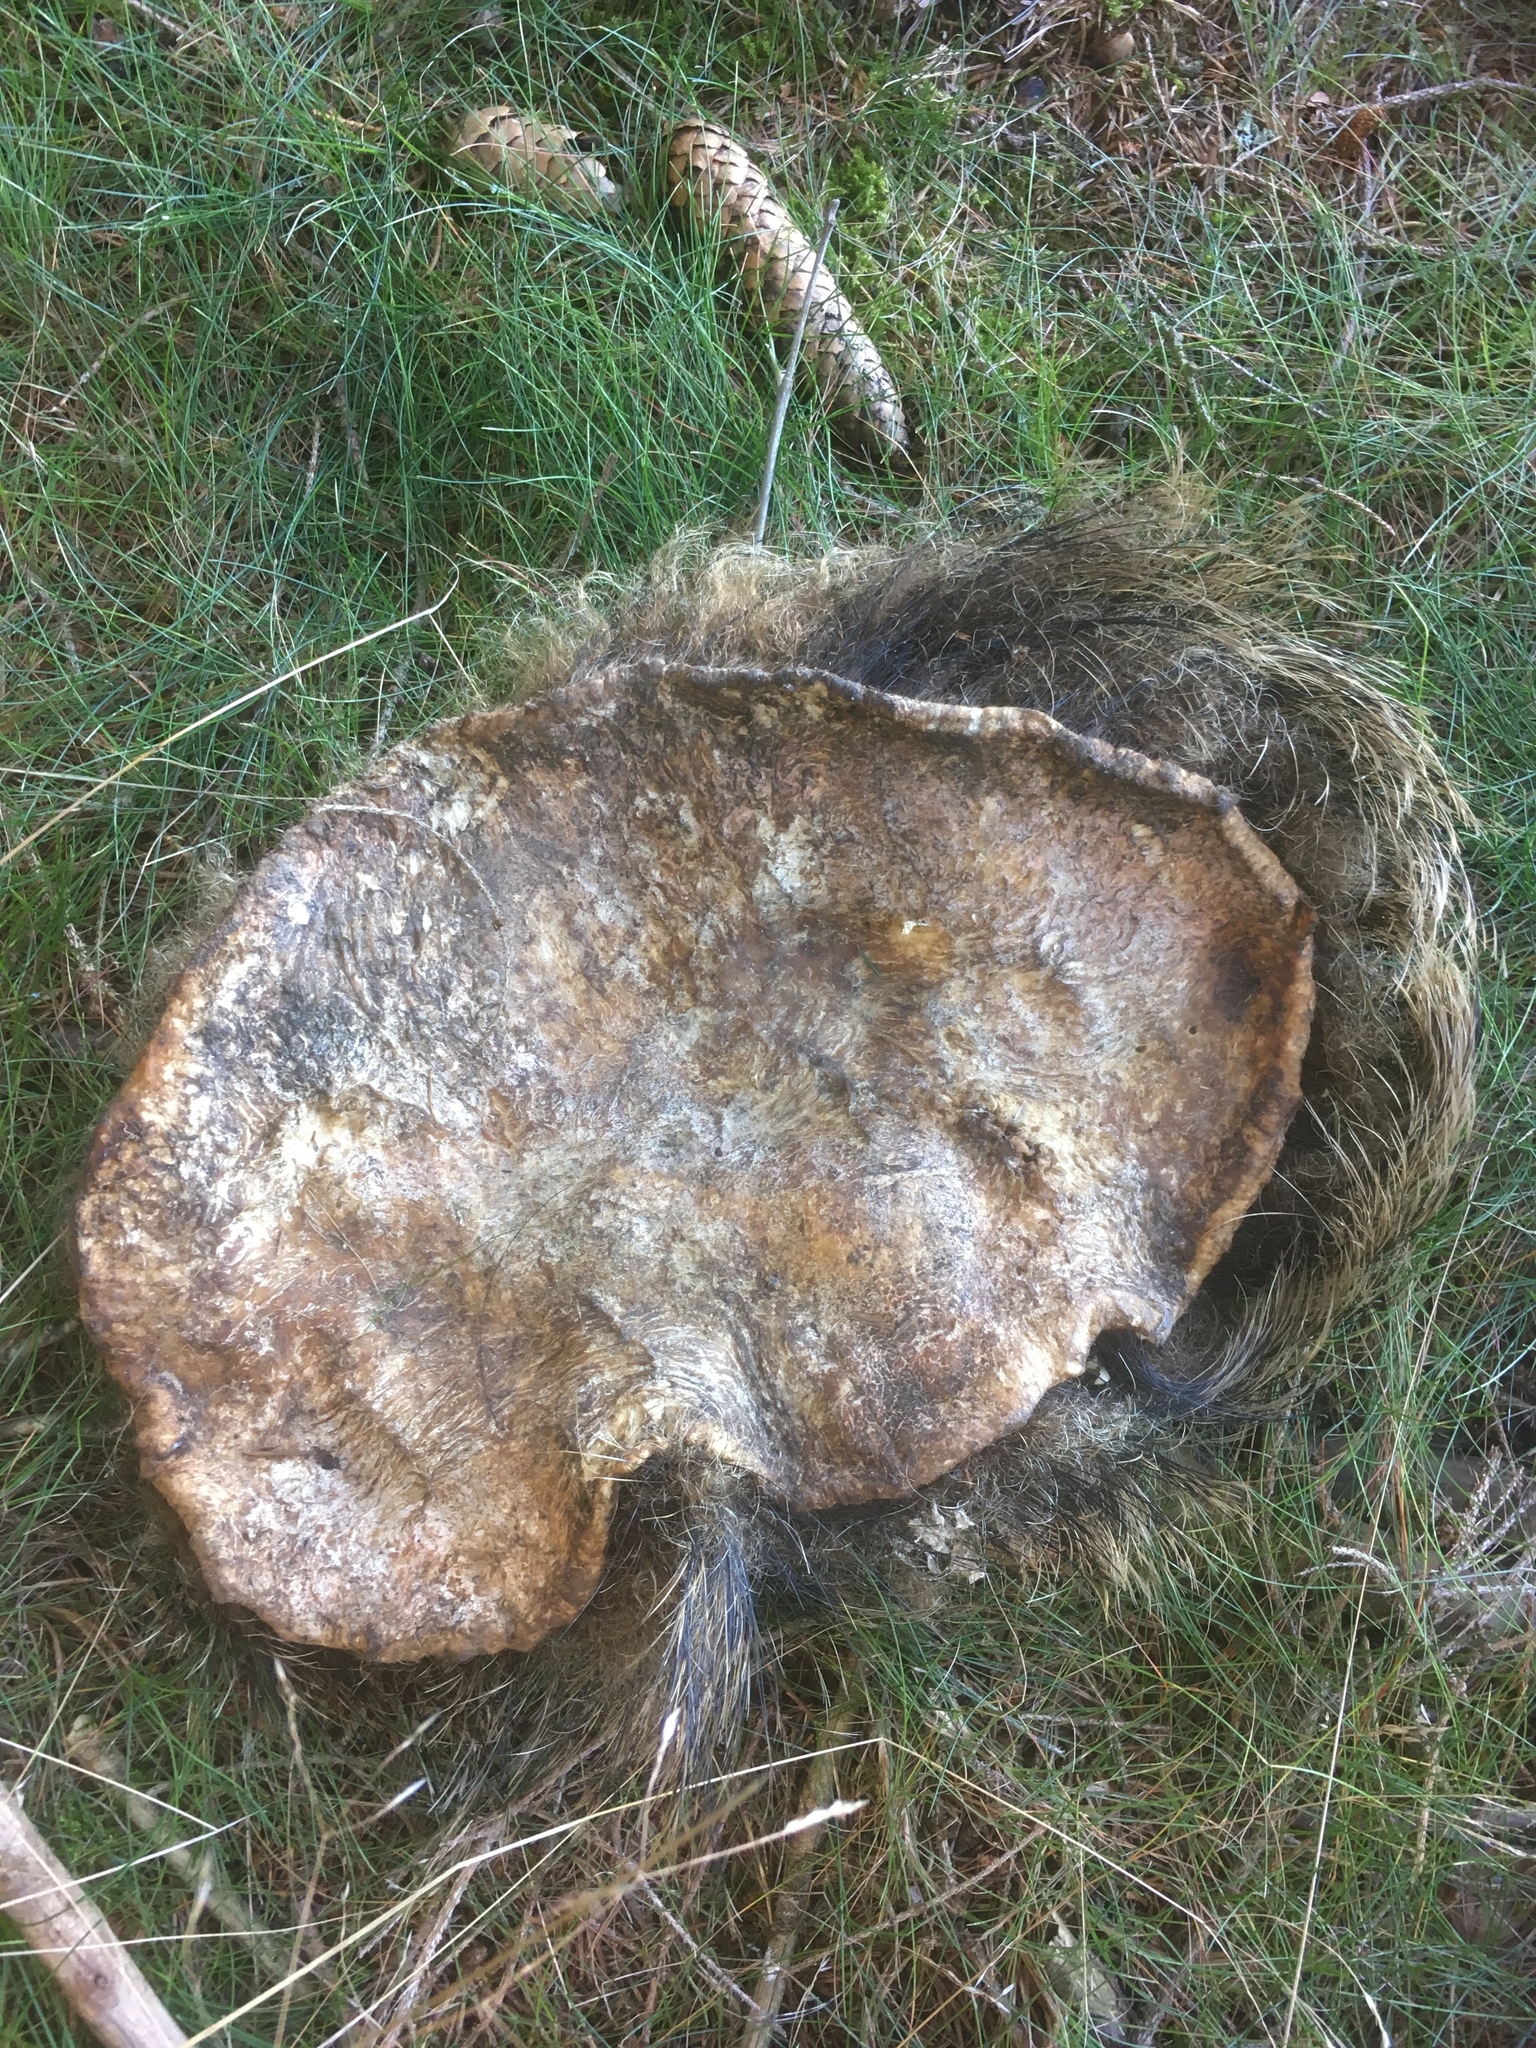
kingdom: Animalia
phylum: Chordata
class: Mammalia
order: Artiodactyla
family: Suidae
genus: Sus
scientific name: Sus scrofa
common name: Wild boar
